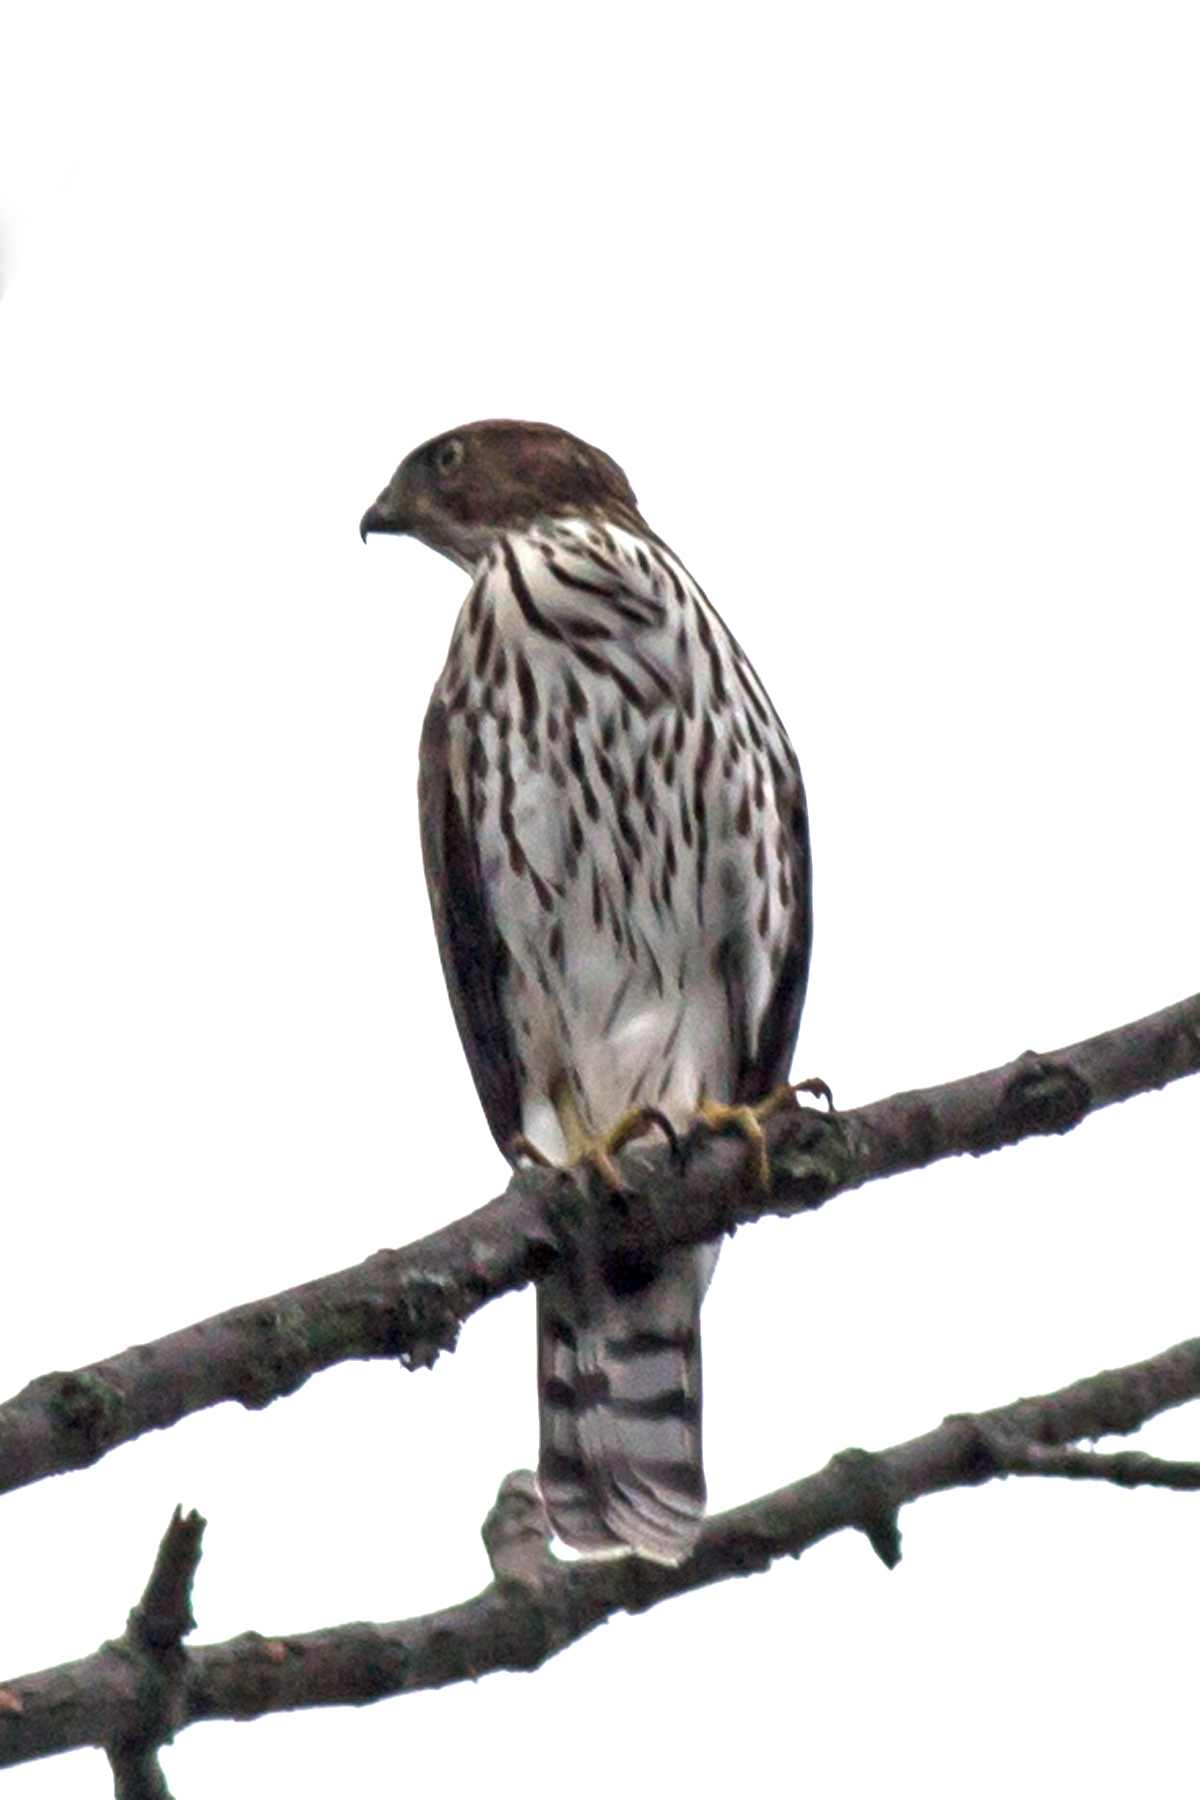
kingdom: Animalia
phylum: Chordata
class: Aves
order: Accipitriformes
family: Accipitridae
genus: Accipiter
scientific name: Accipiter cooperii
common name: Cooper's hawk
